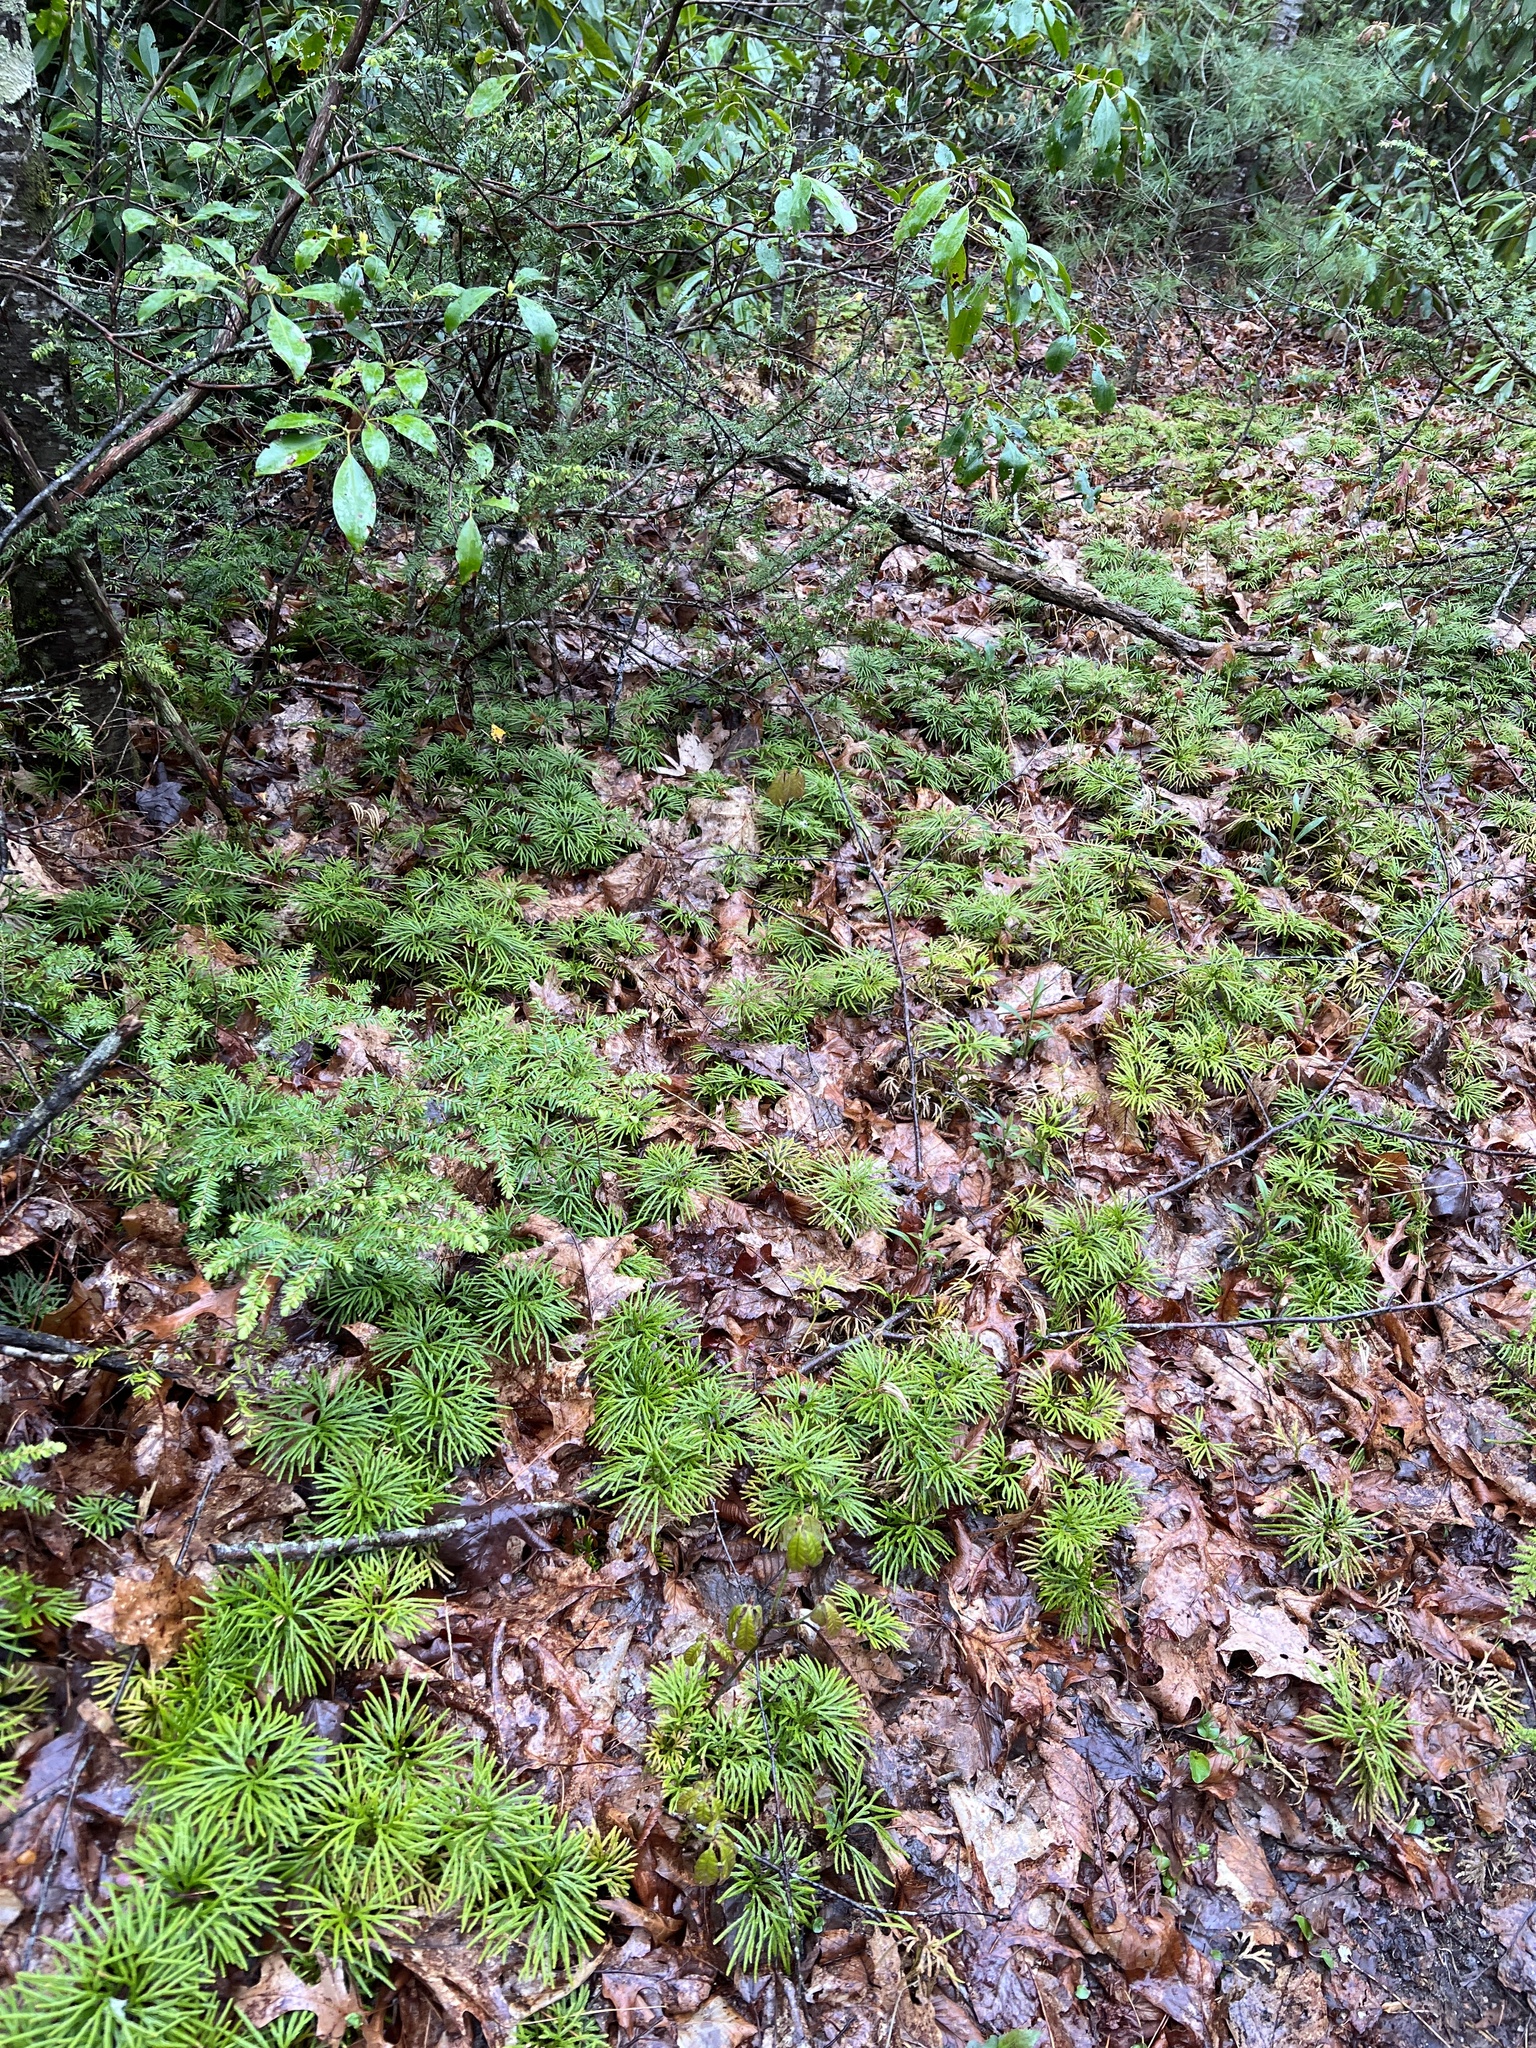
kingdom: Plantae
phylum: Tracheophyta
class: Lycopodiopsida
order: Lycopodiales
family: Lycopodiaceae
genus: Diphasiastrum
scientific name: Diphasiastrum digitatum
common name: Southern running-pine
